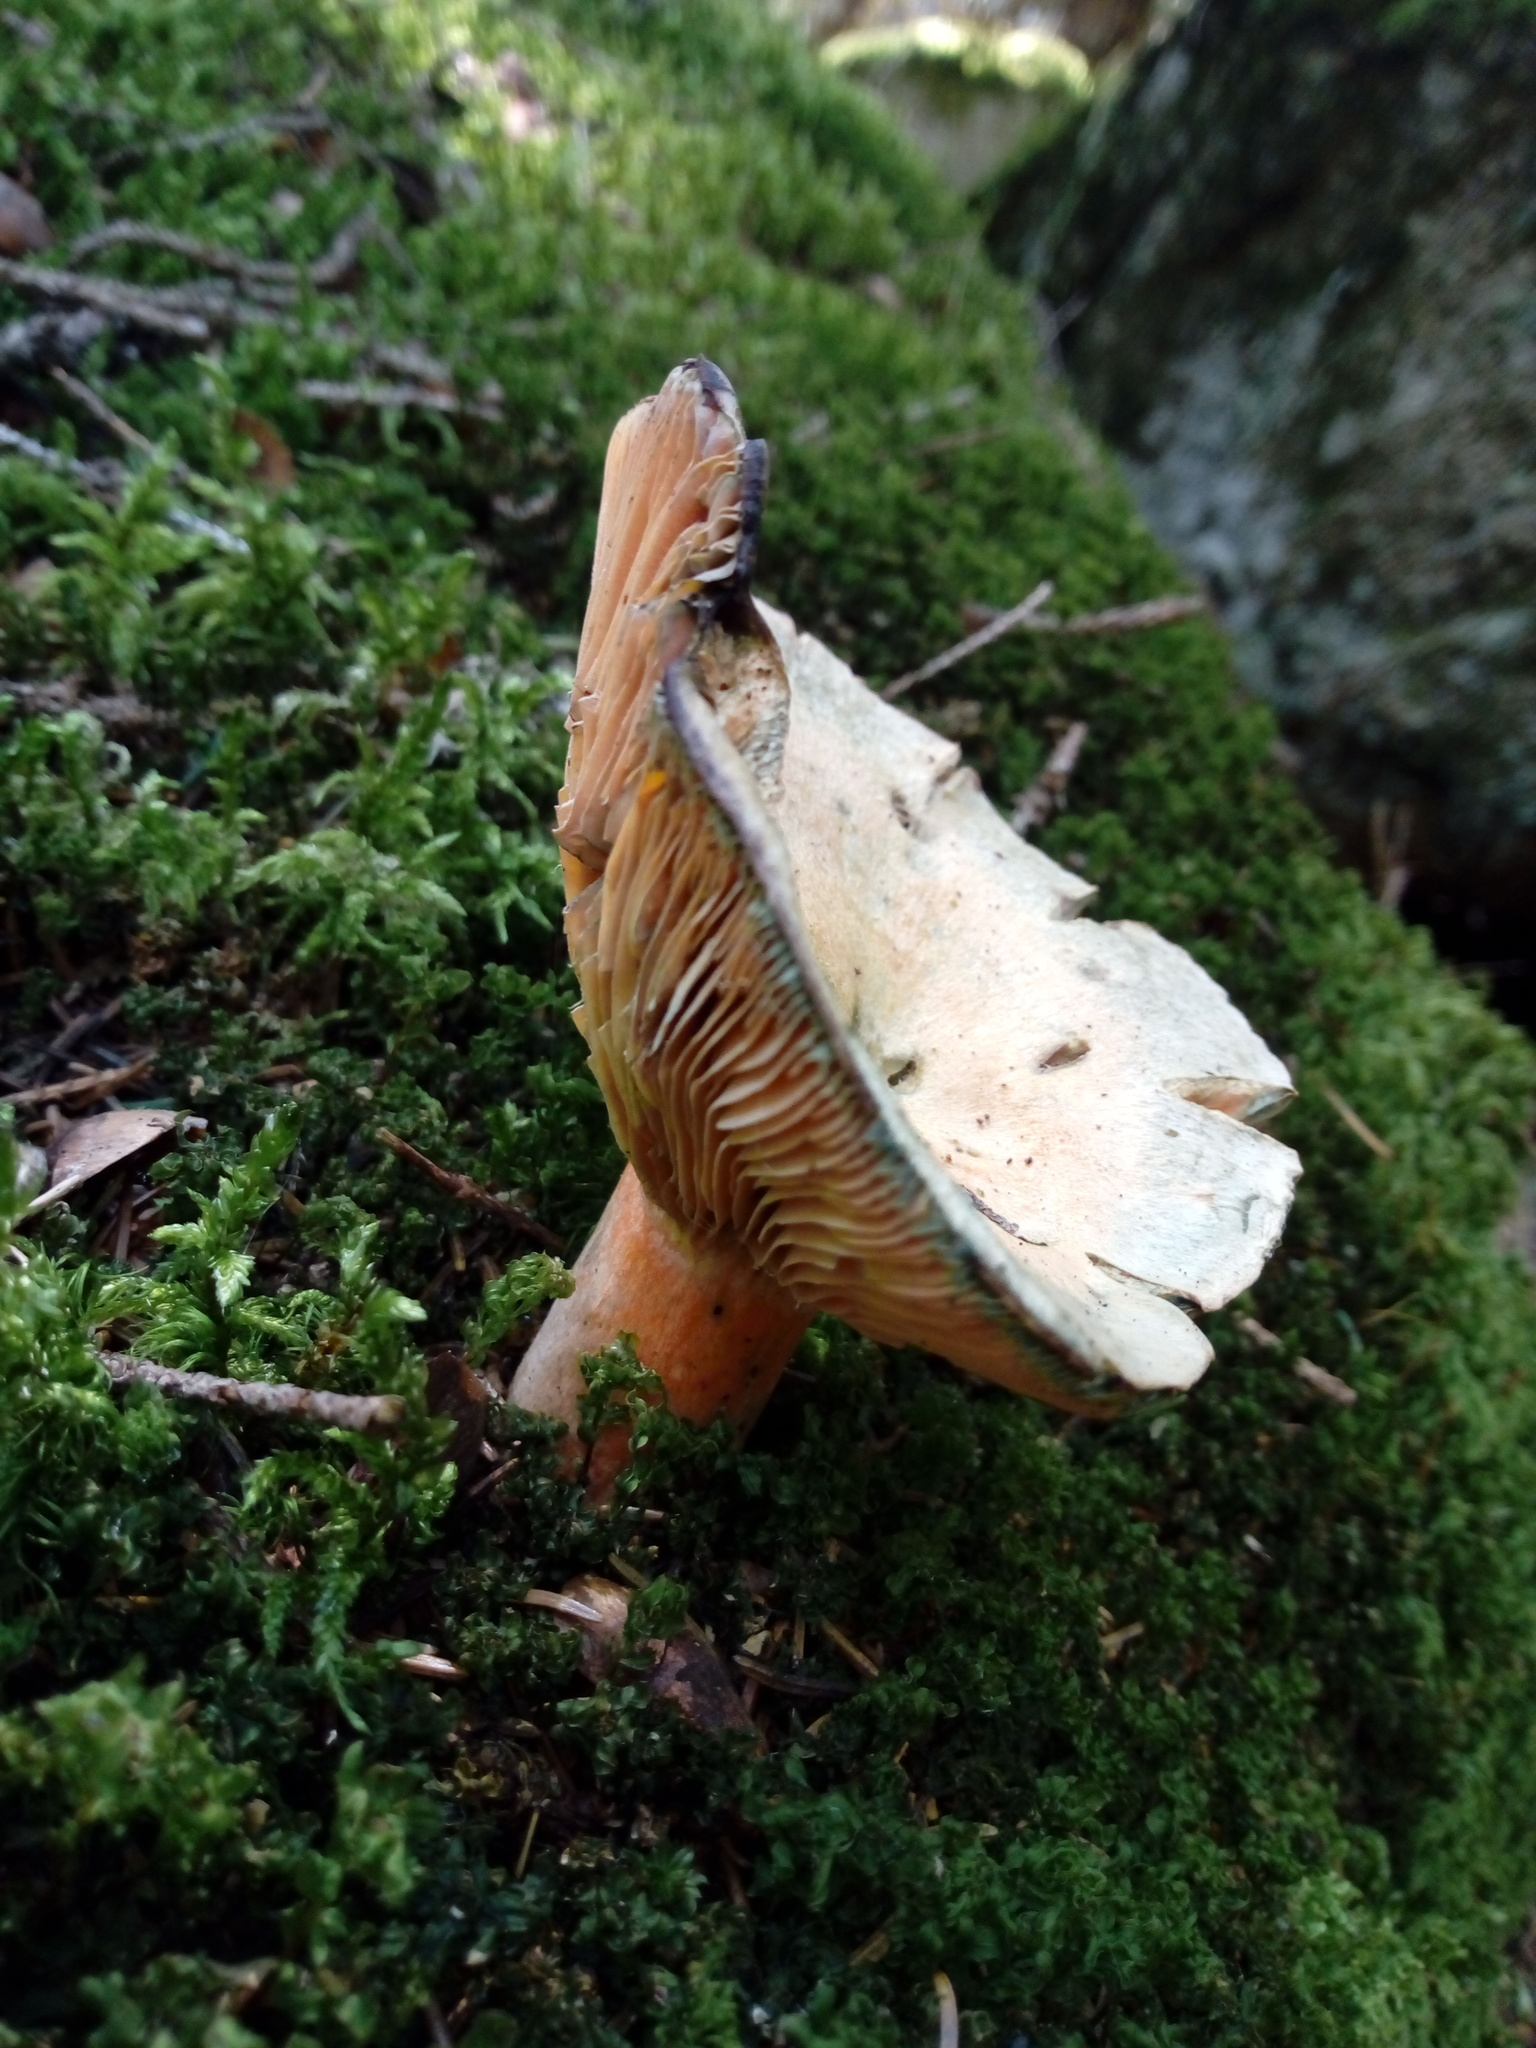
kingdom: Fungi
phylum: Basidiomycota
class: Agaricomycetes
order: Russulales
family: Russulaceae
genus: Lactarius
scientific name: Lactarius deterrimus
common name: False saffron milkcap
